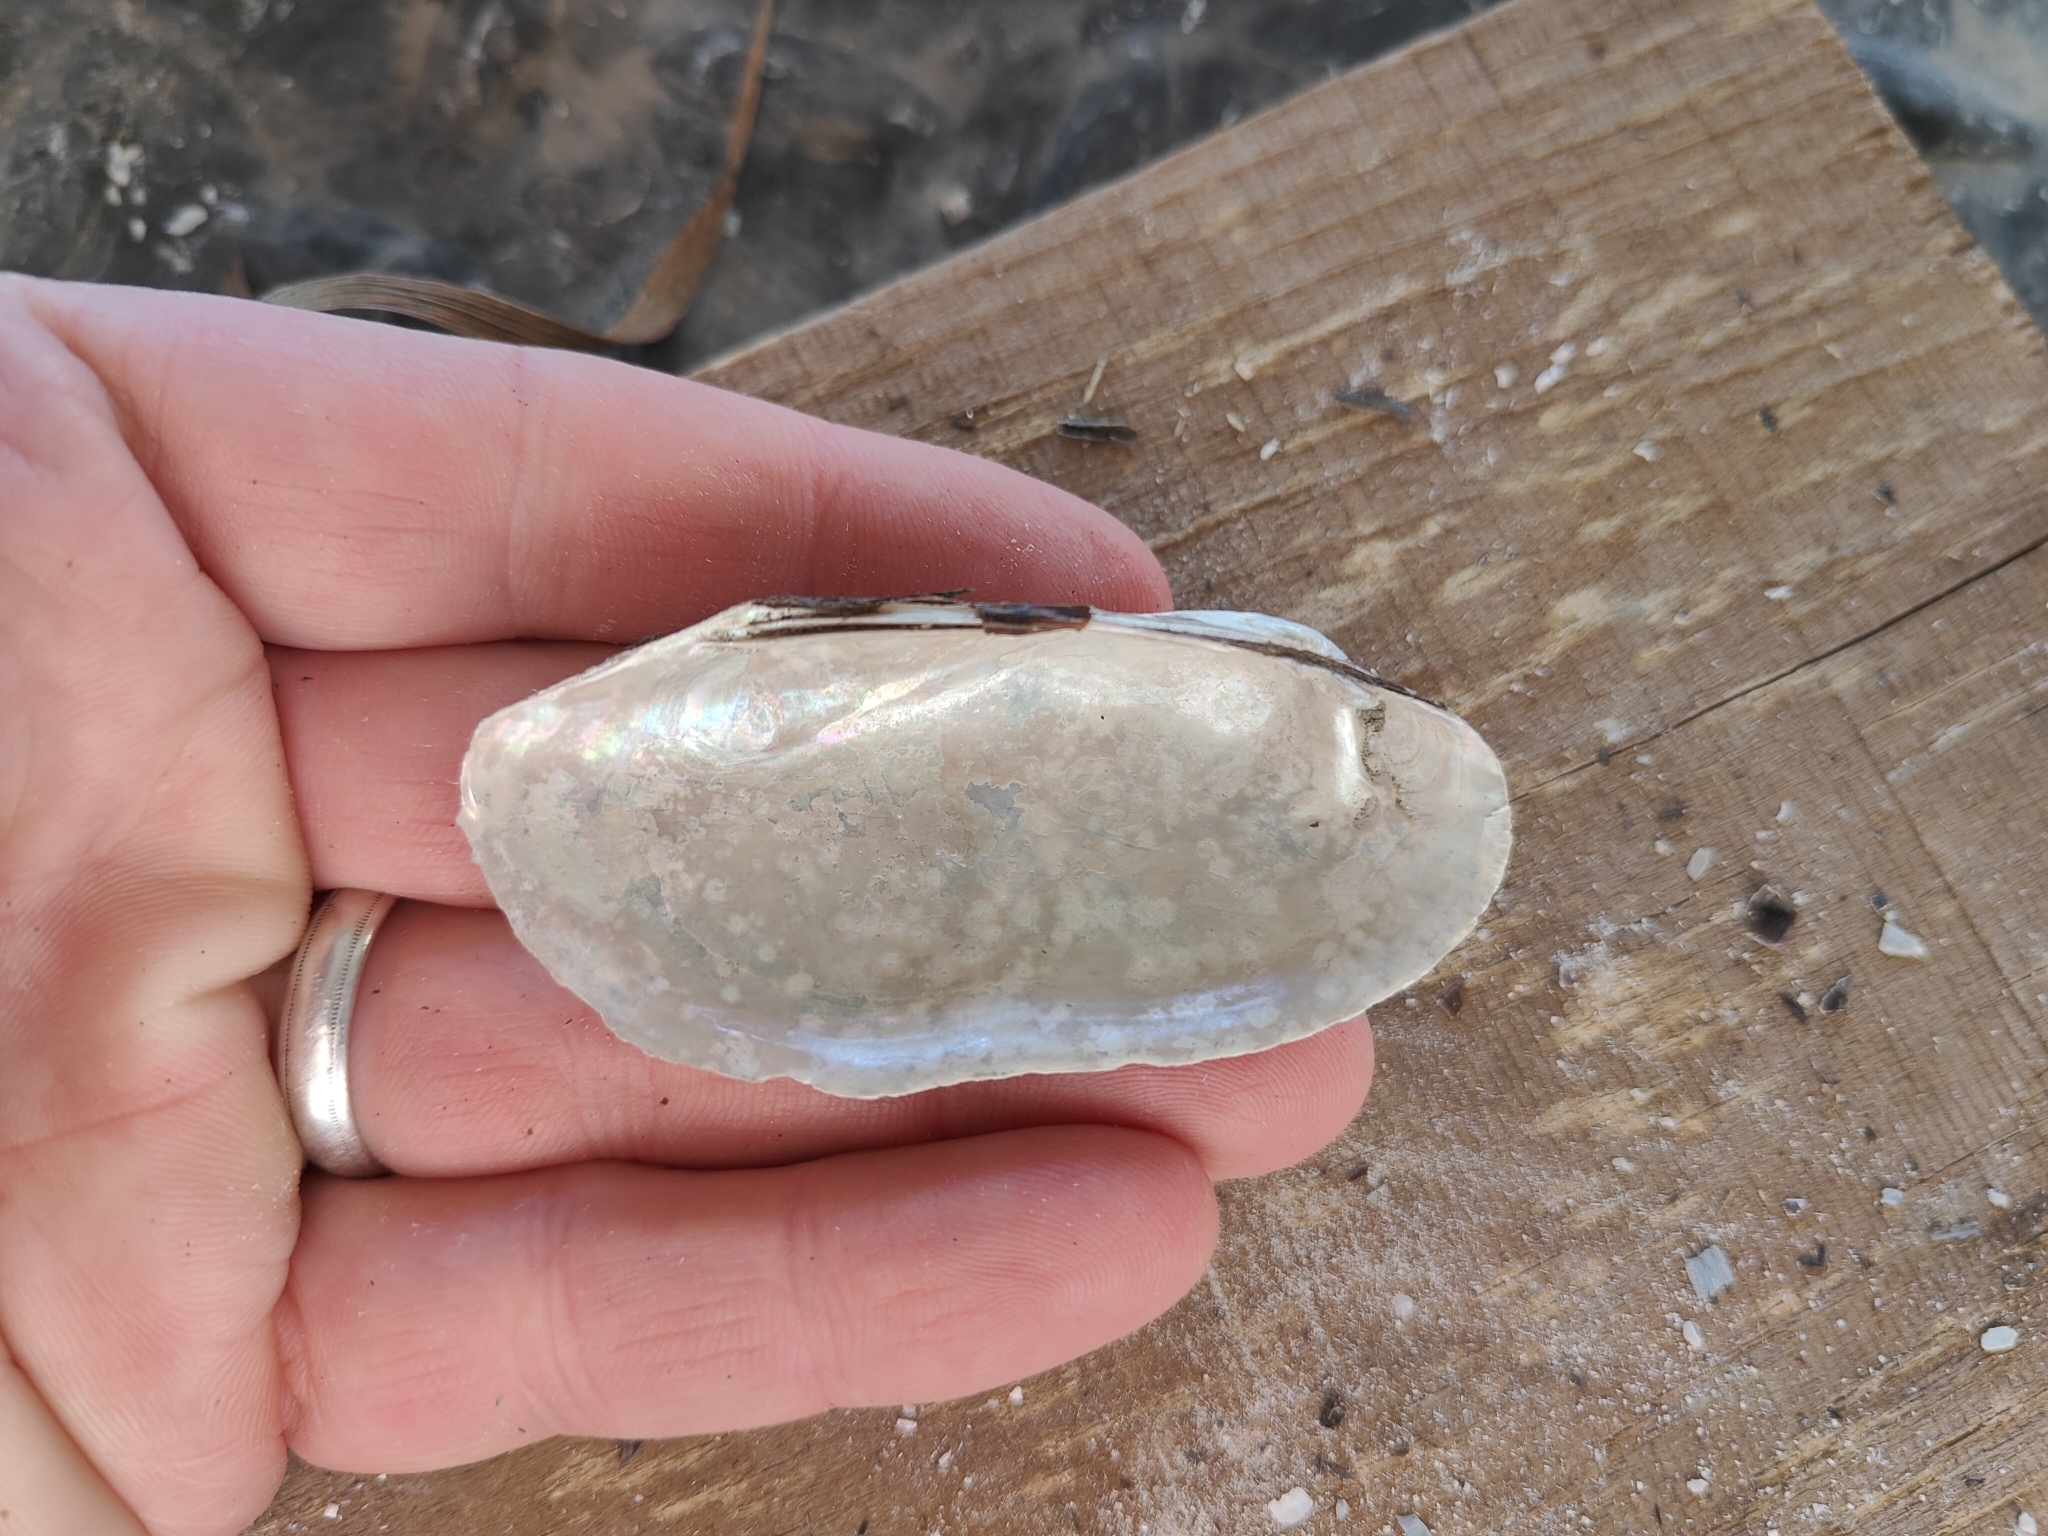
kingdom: Animalia
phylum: Mollusca
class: Bivalvia
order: Unionida
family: Unionidae
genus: Lampsilis
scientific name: Lampsilis teres
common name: Yellow sandshell
